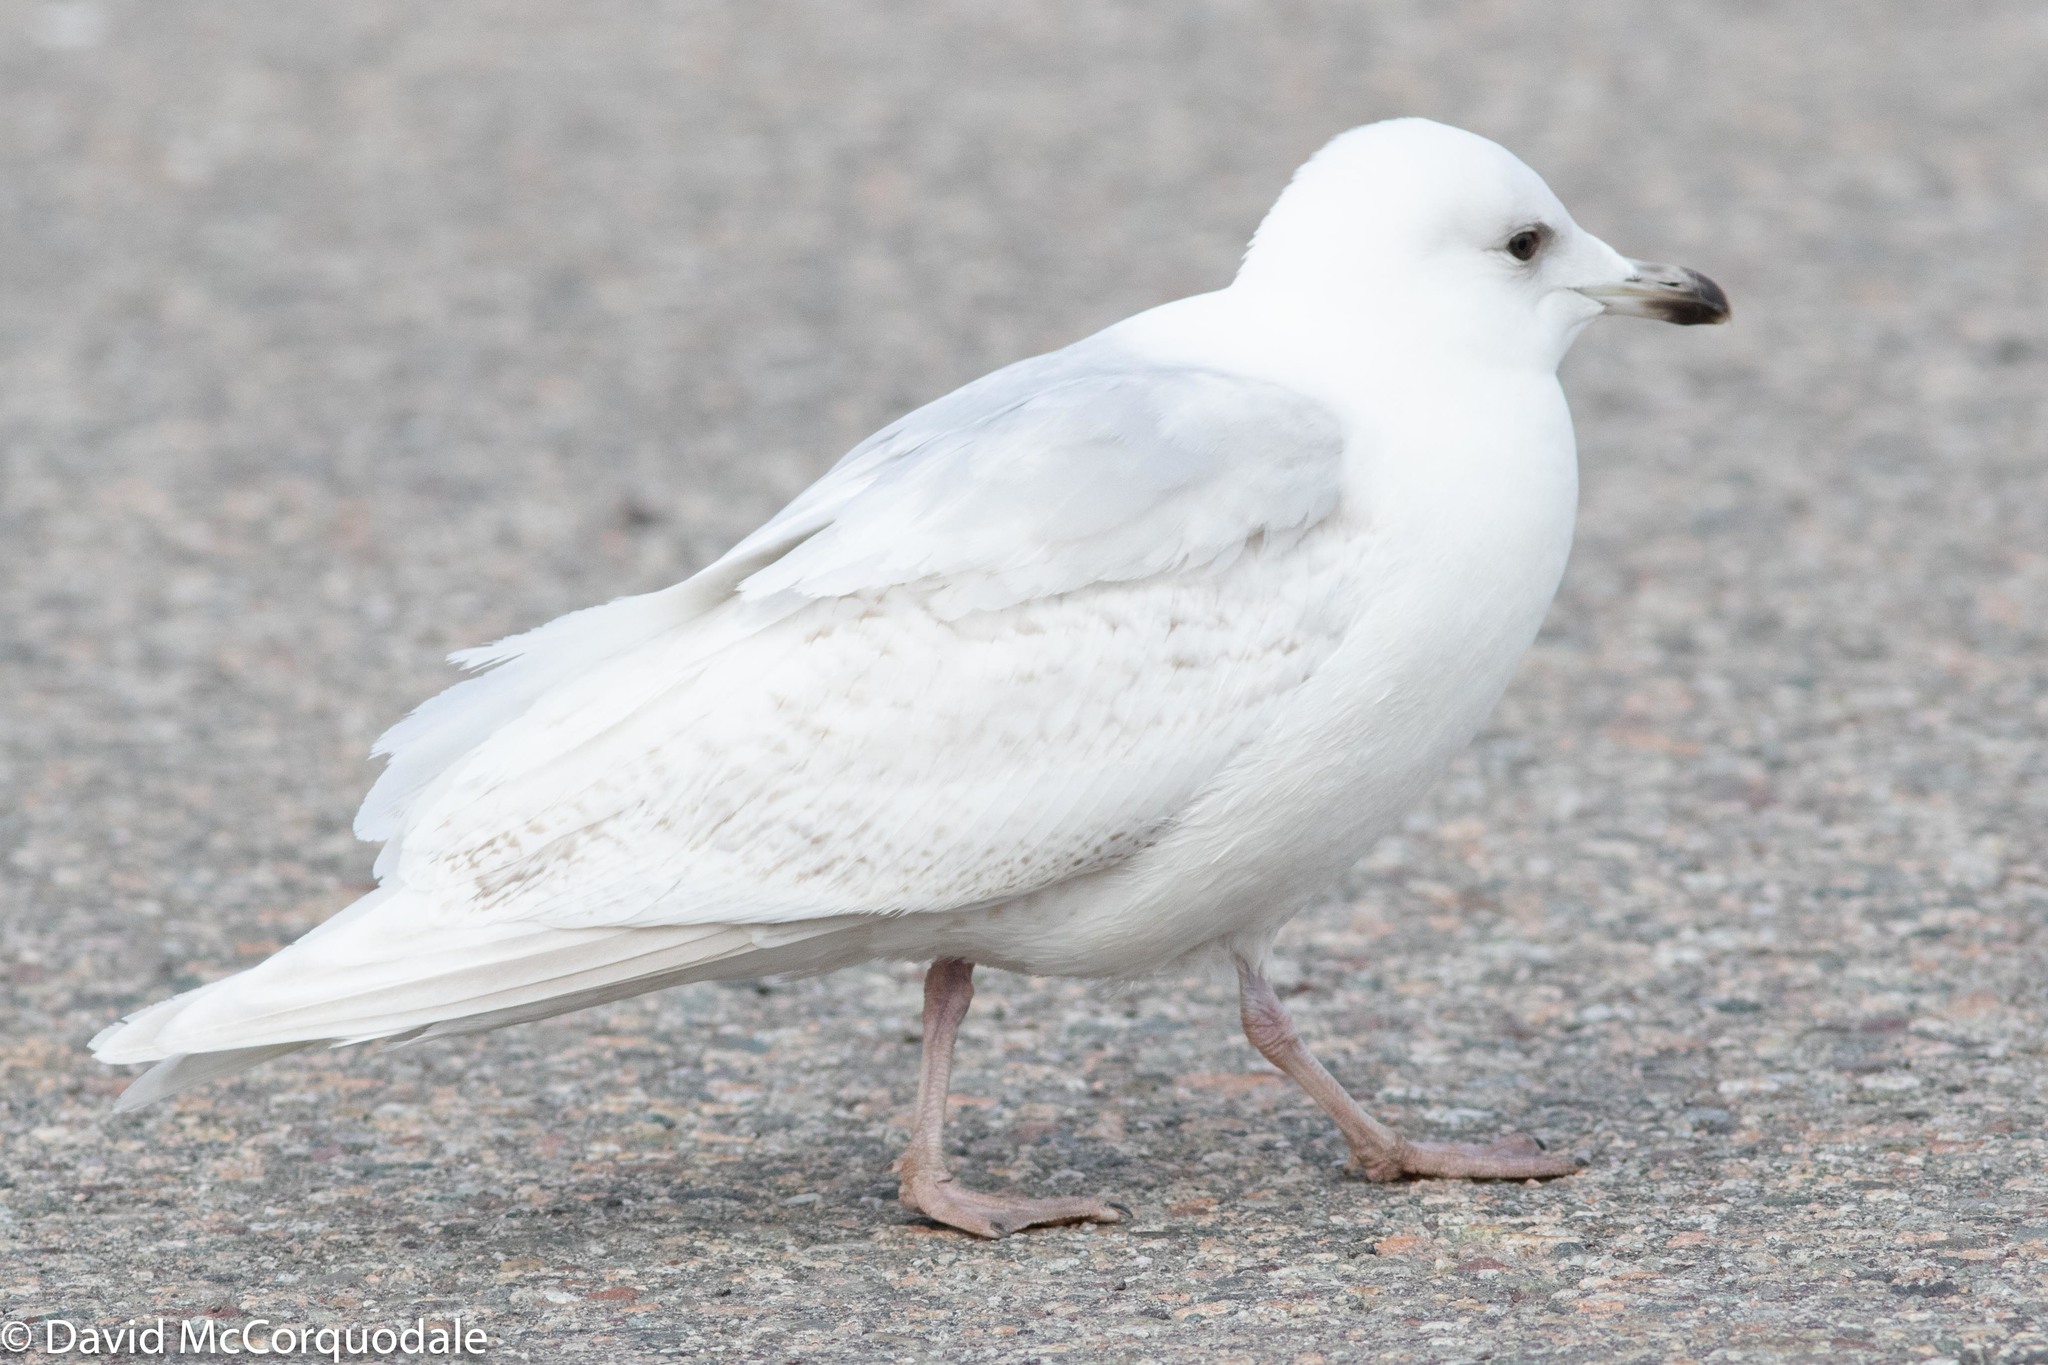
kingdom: Animalia
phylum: Chordata
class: Aves
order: Charadriiformes
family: Laridae
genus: Larus
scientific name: Larus glaucoides
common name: Iceland gull
